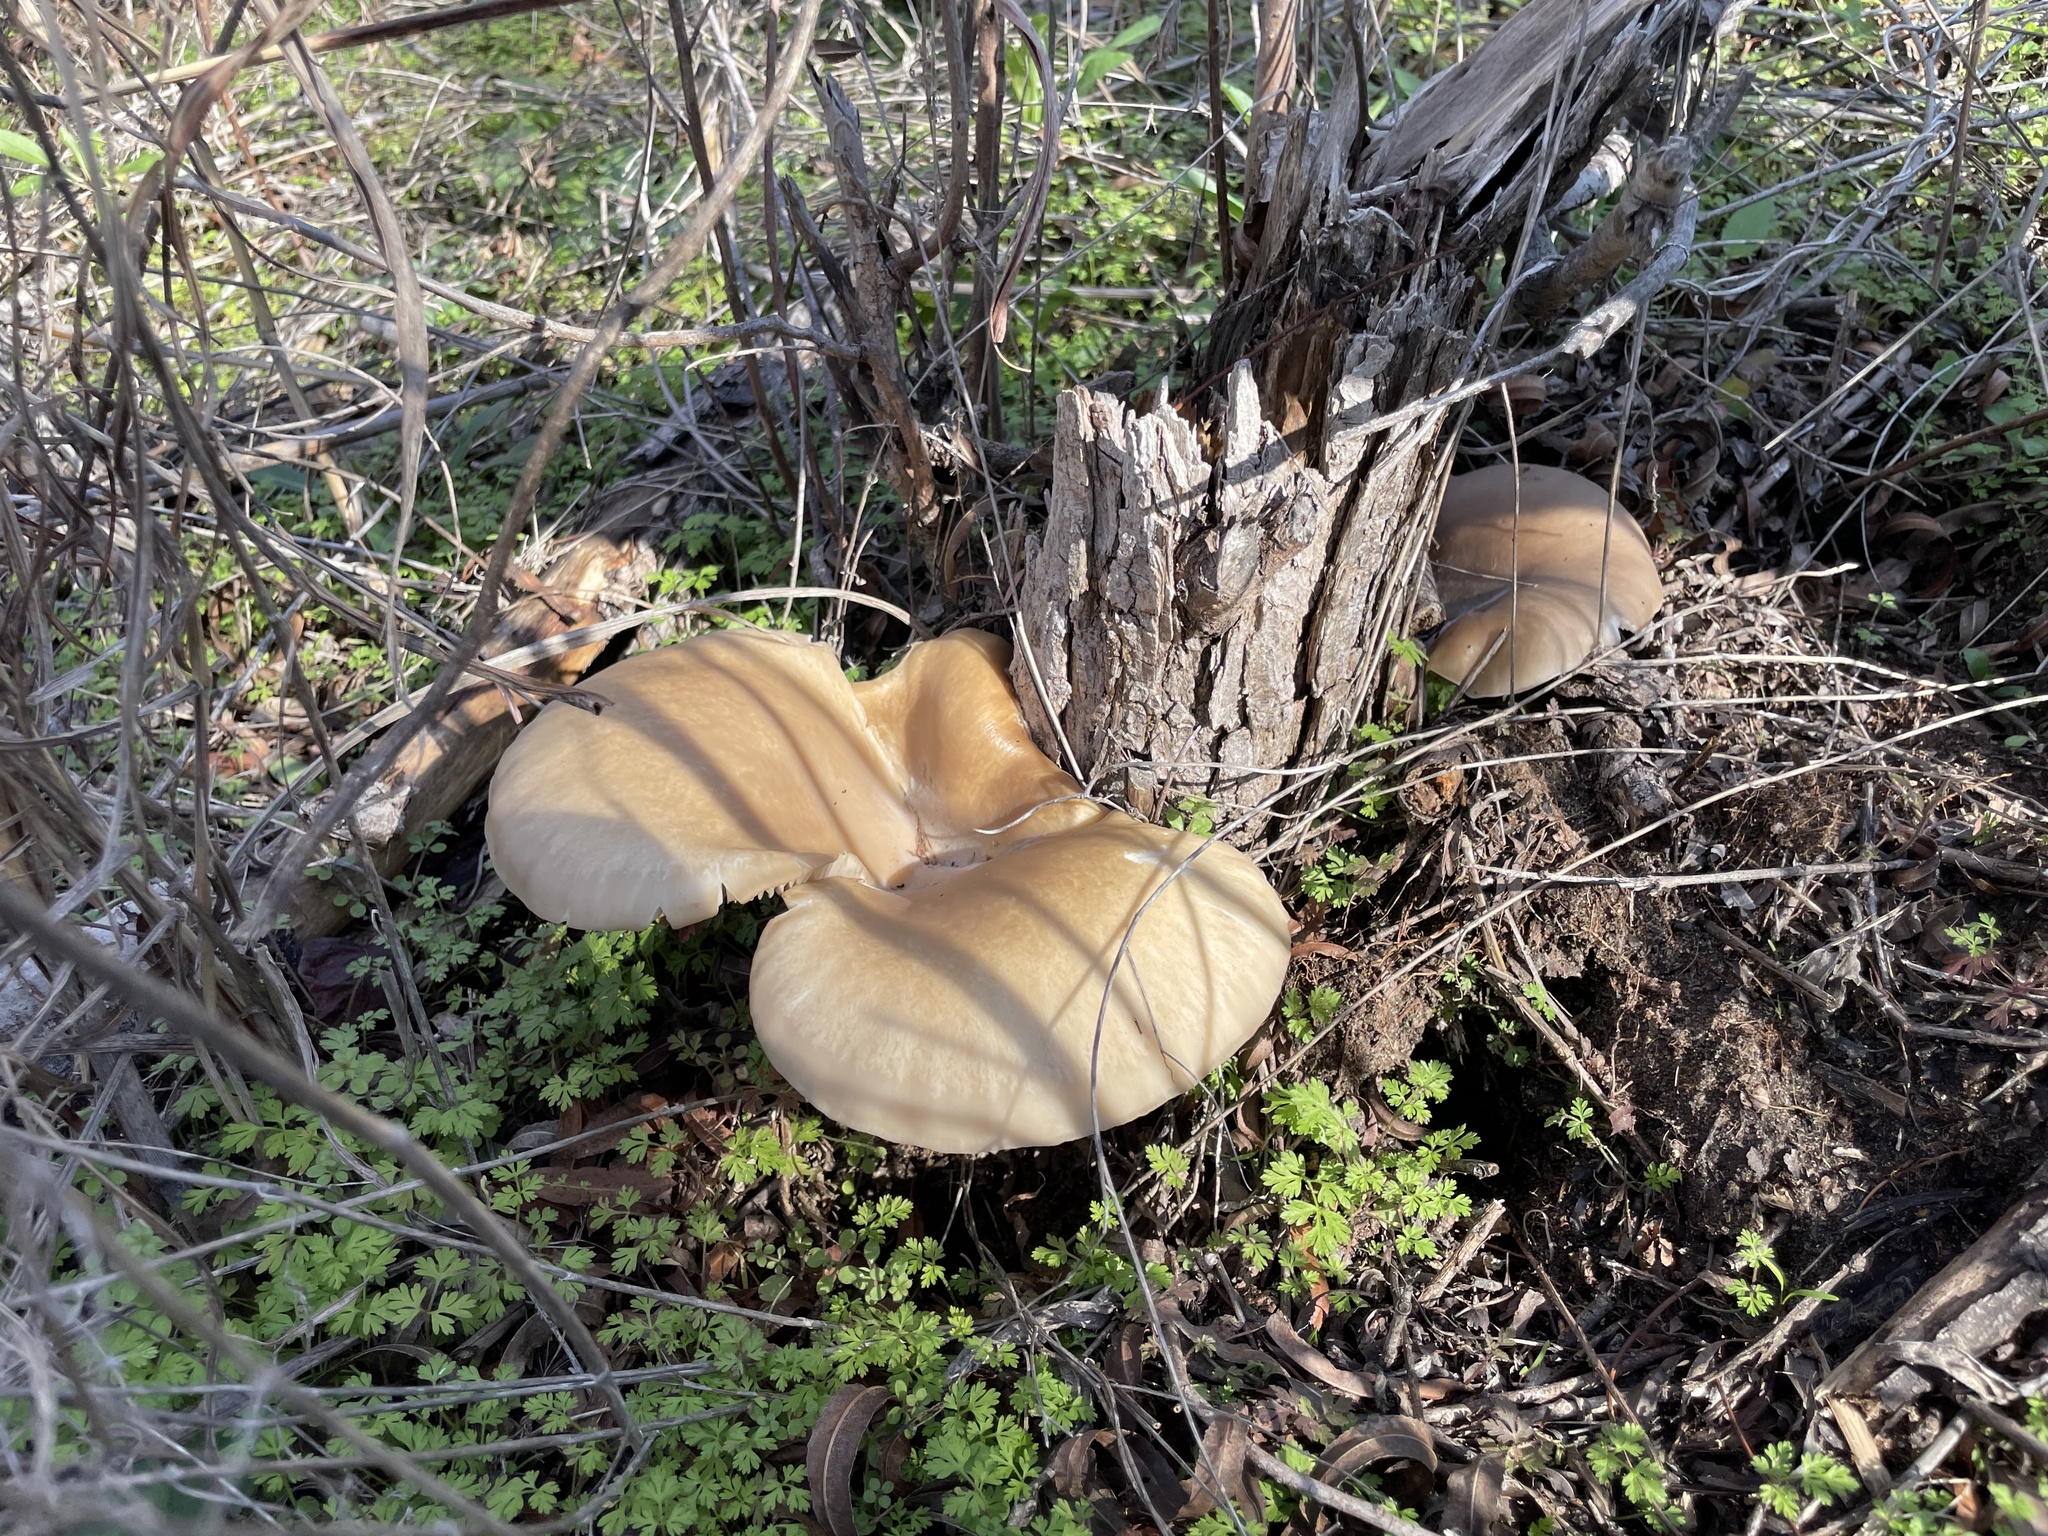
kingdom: Fungi
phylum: Basidiomycota
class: Agaricomycetes
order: Agaricales
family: Pleurotaceae
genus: Pleurotus
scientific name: Pleurotus ostreatus
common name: Oyster mushroom
